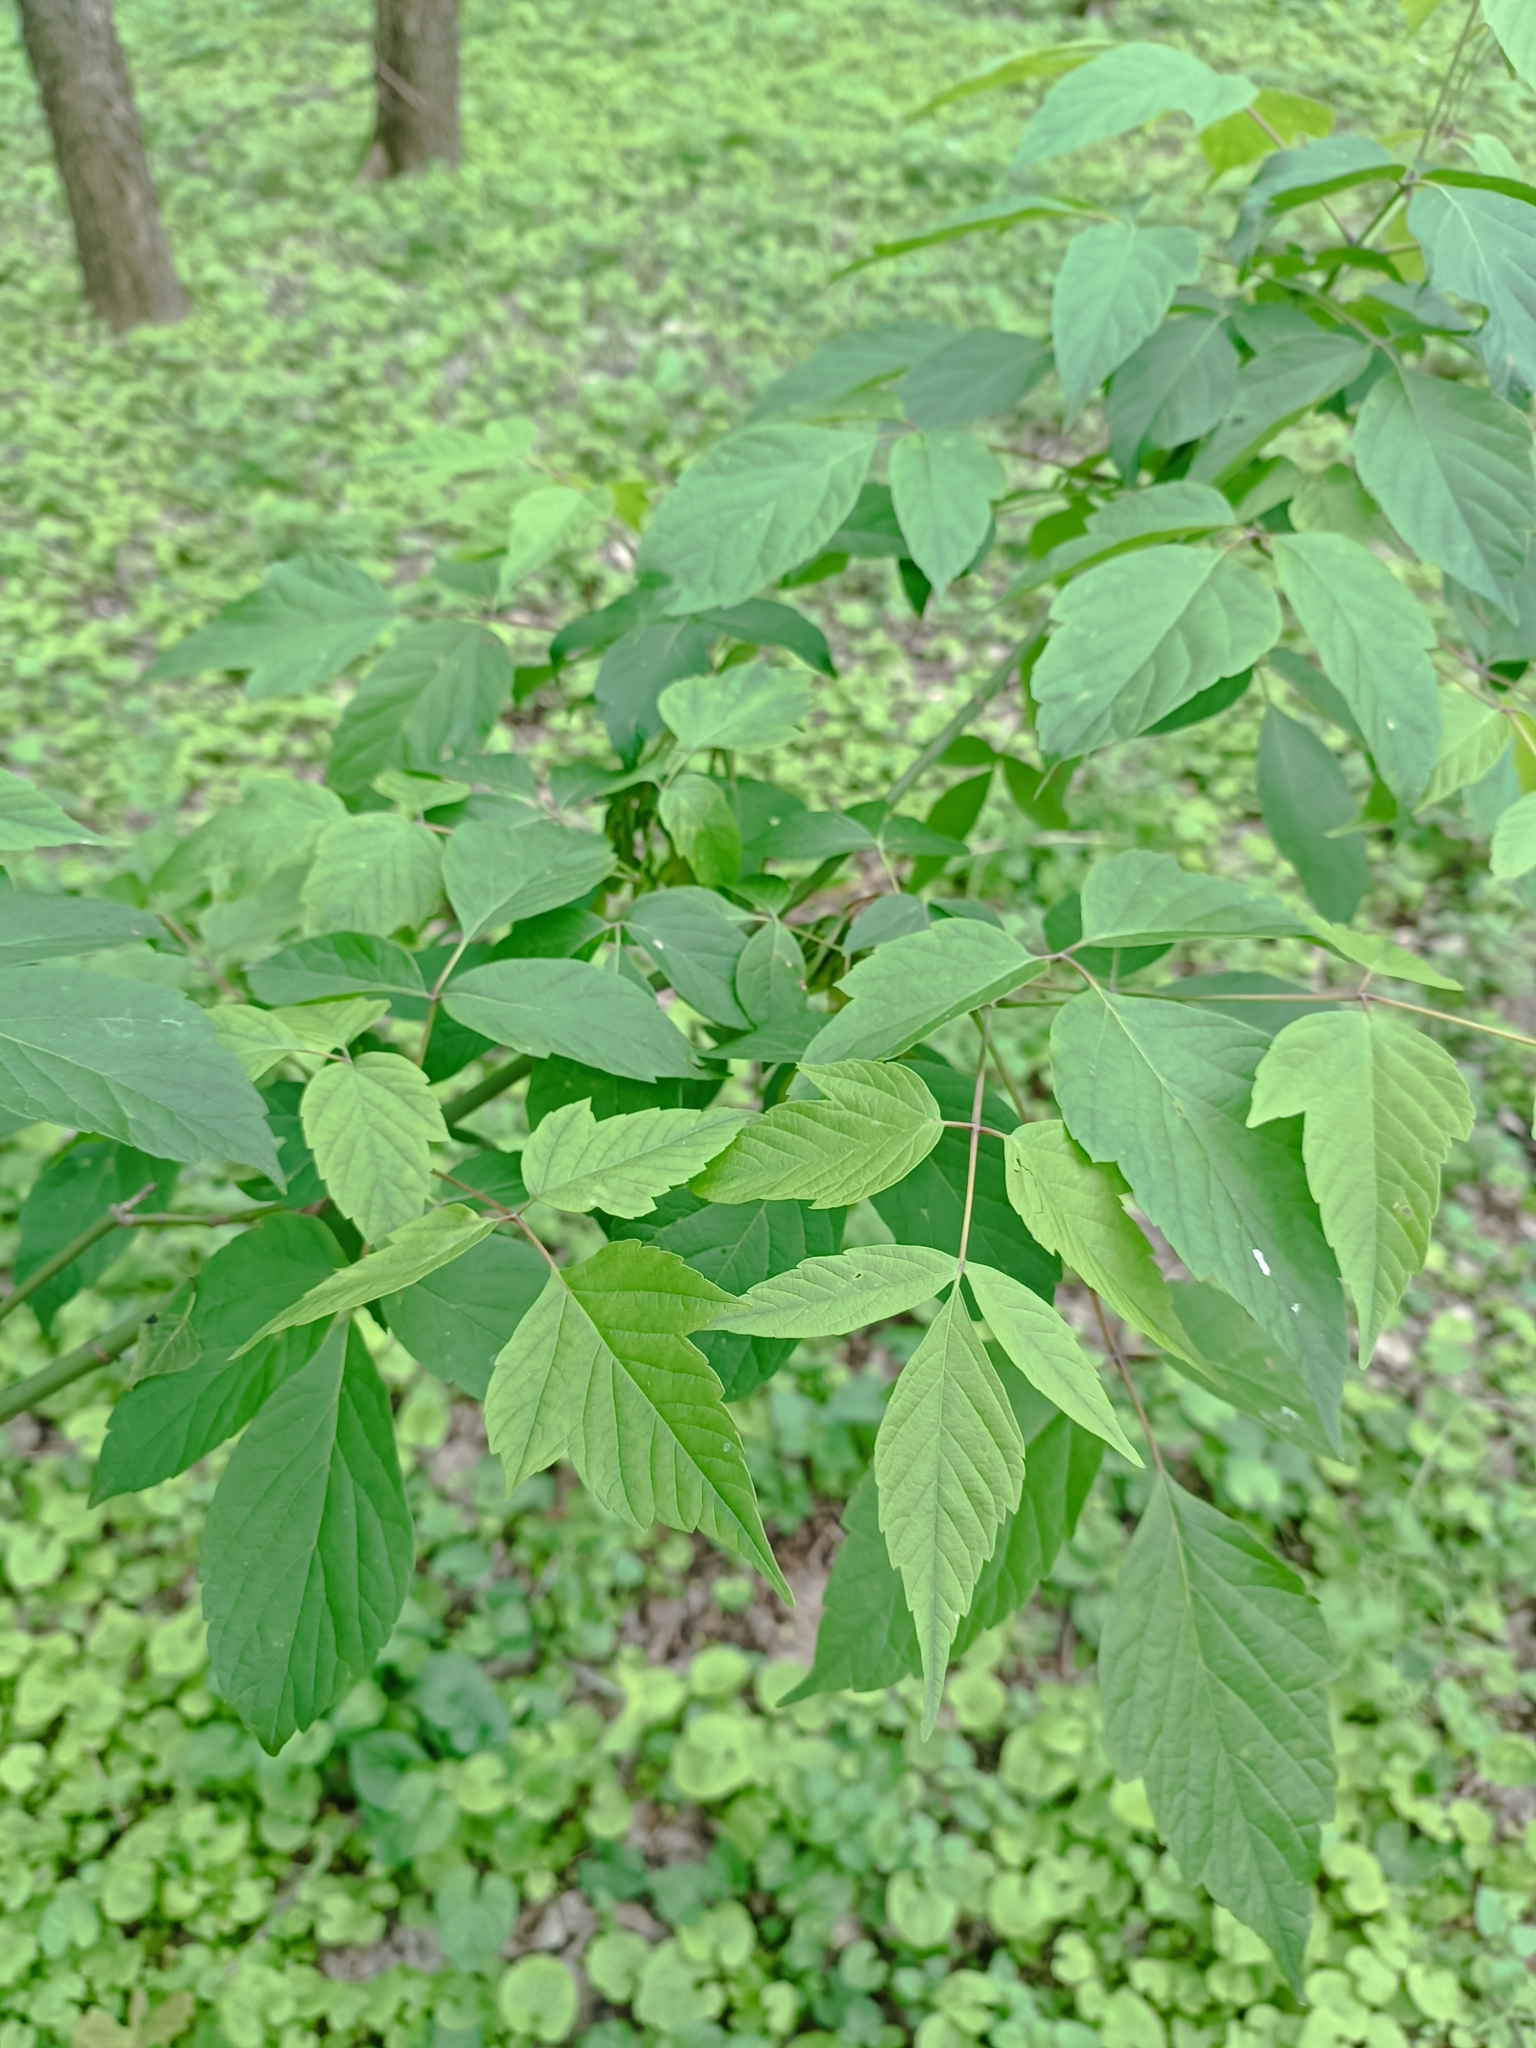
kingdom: Plantae
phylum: Tracheophyta
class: Magnoliopsida
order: Sapindales
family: Sapindaceae
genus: Acer
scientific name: Acer negundo
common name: Ashleaf maple
